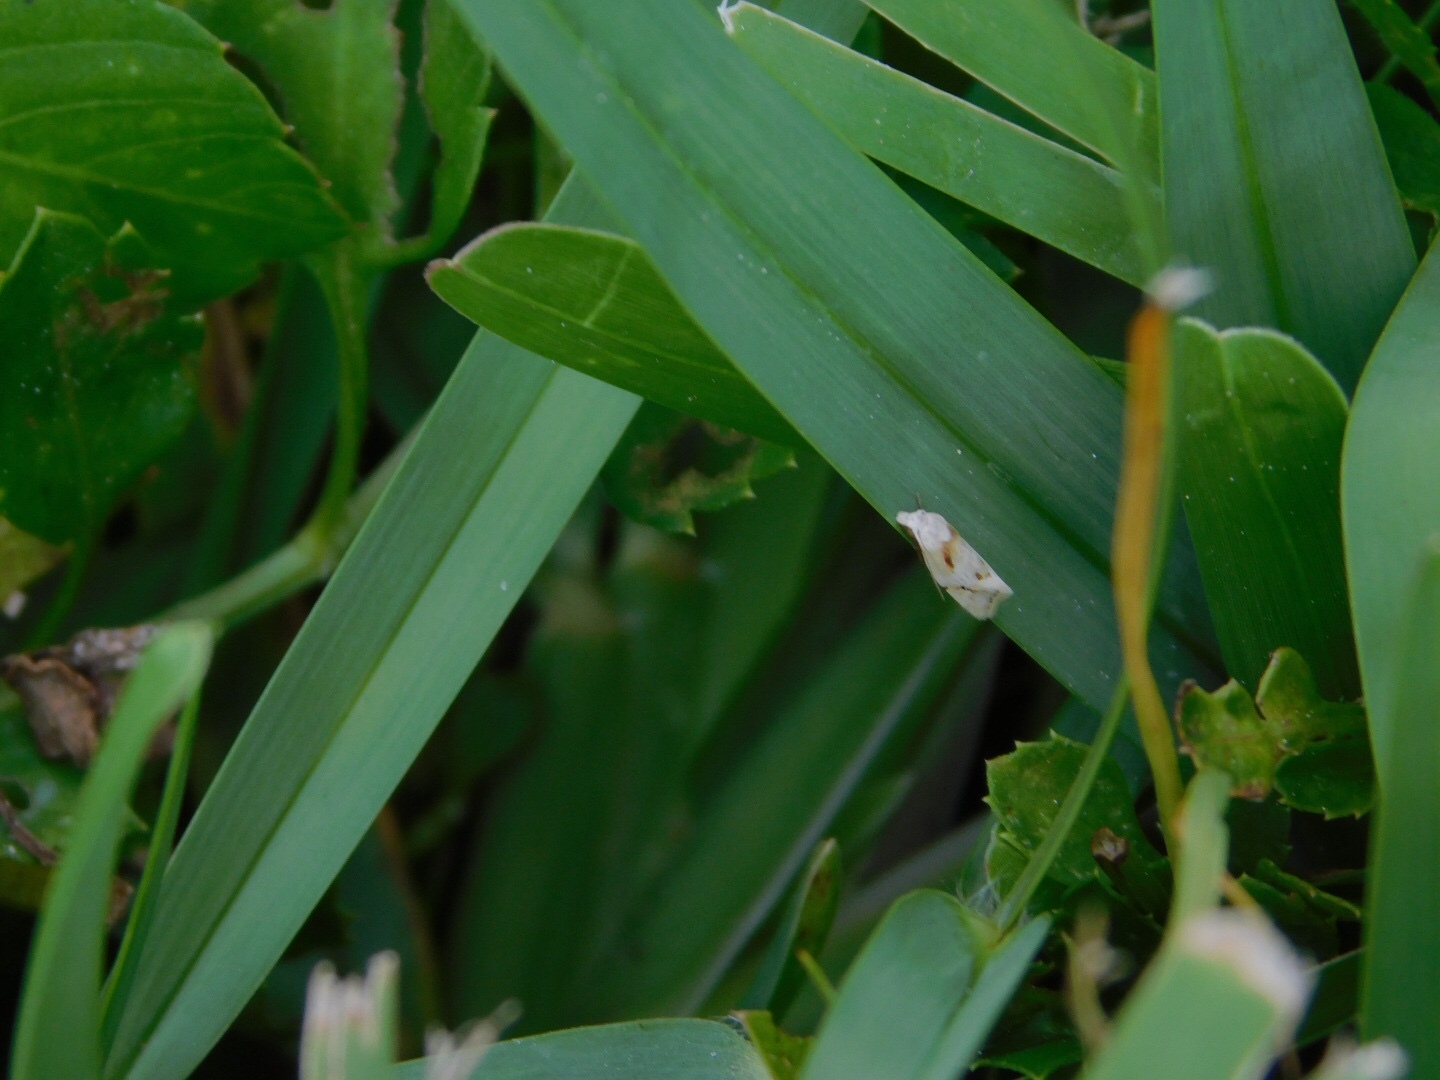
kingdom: Animalia
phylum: Arthropoda
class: Insecta
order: Lepidoptera
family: Tortricidae
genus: Aethes
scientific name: Aethes seriatana
